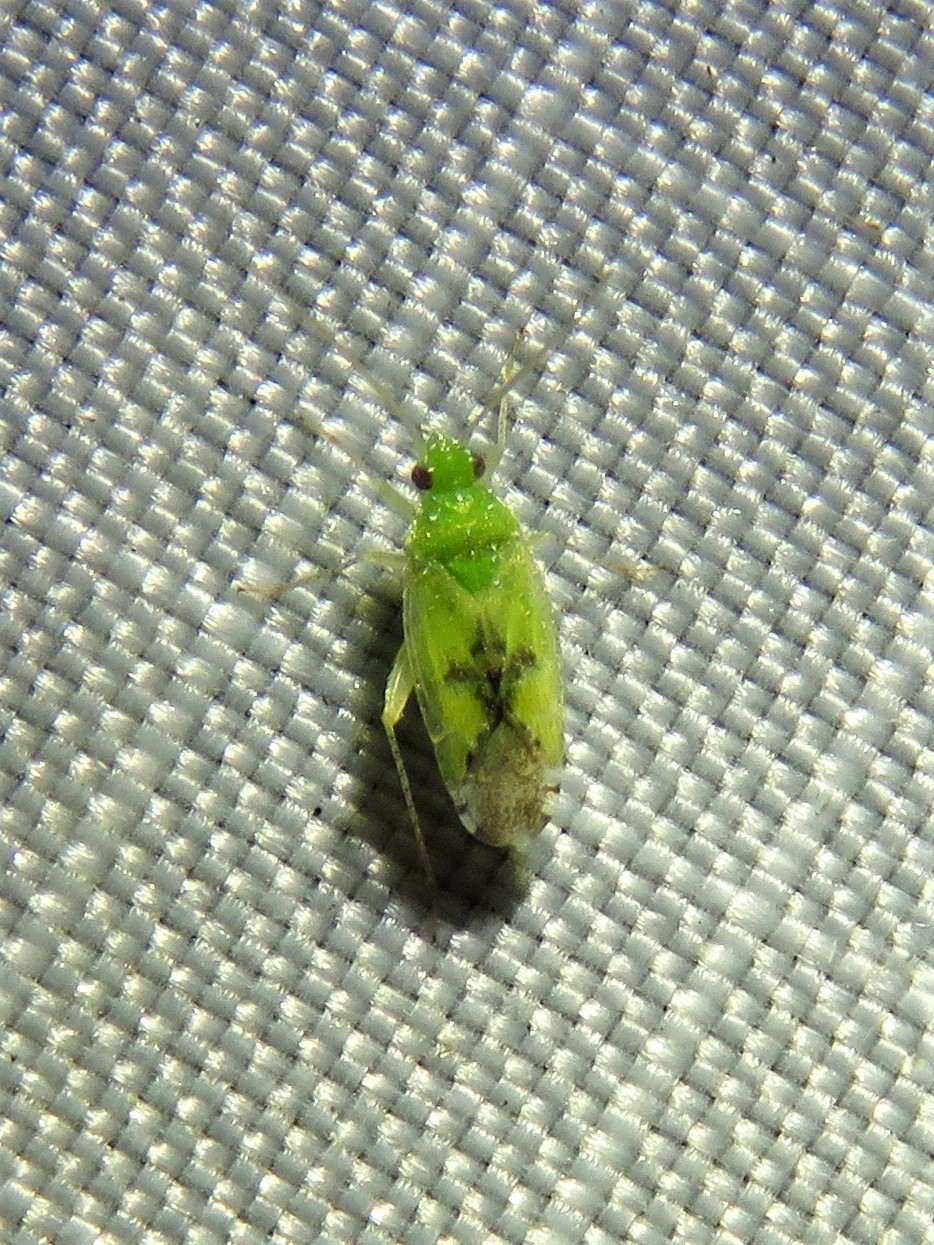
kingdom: Animalia
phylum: Arthropoda
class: Insecta
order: Hemiptera
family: Miridae
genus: Keltonia
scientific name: Keltonia tuckeri
